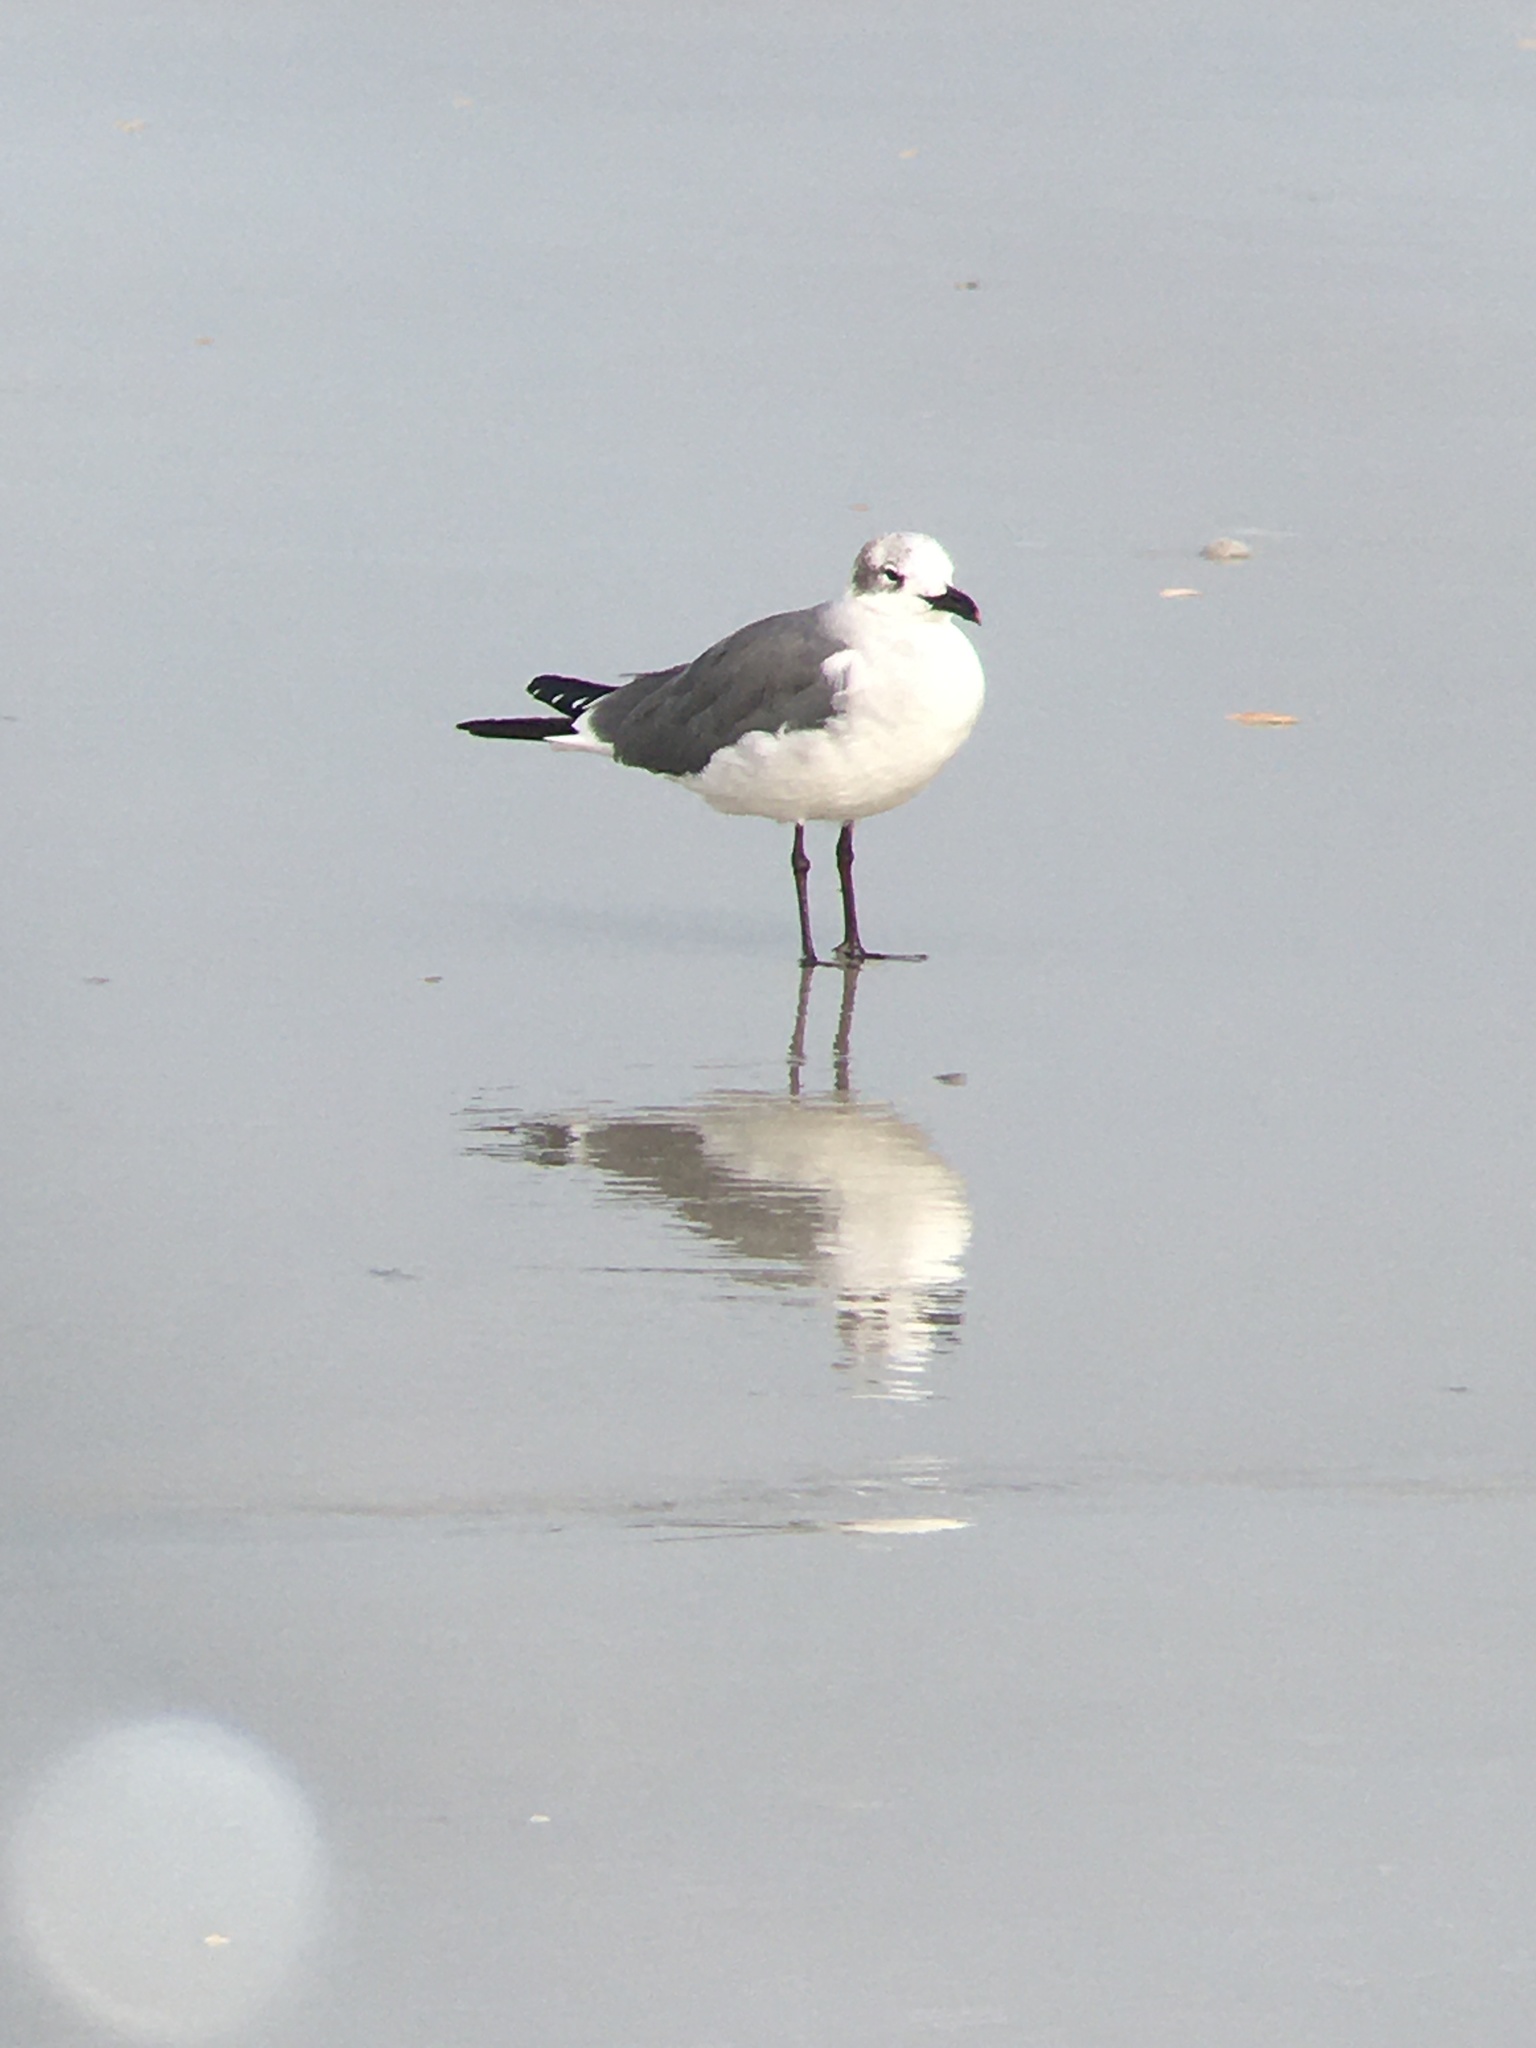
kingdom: Animalia
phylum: Chordata
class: Aves
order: Charadriiformes
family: Laridae
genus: Leucophaeus
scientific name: Leucophaeus atricilla
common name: Laughing gull
